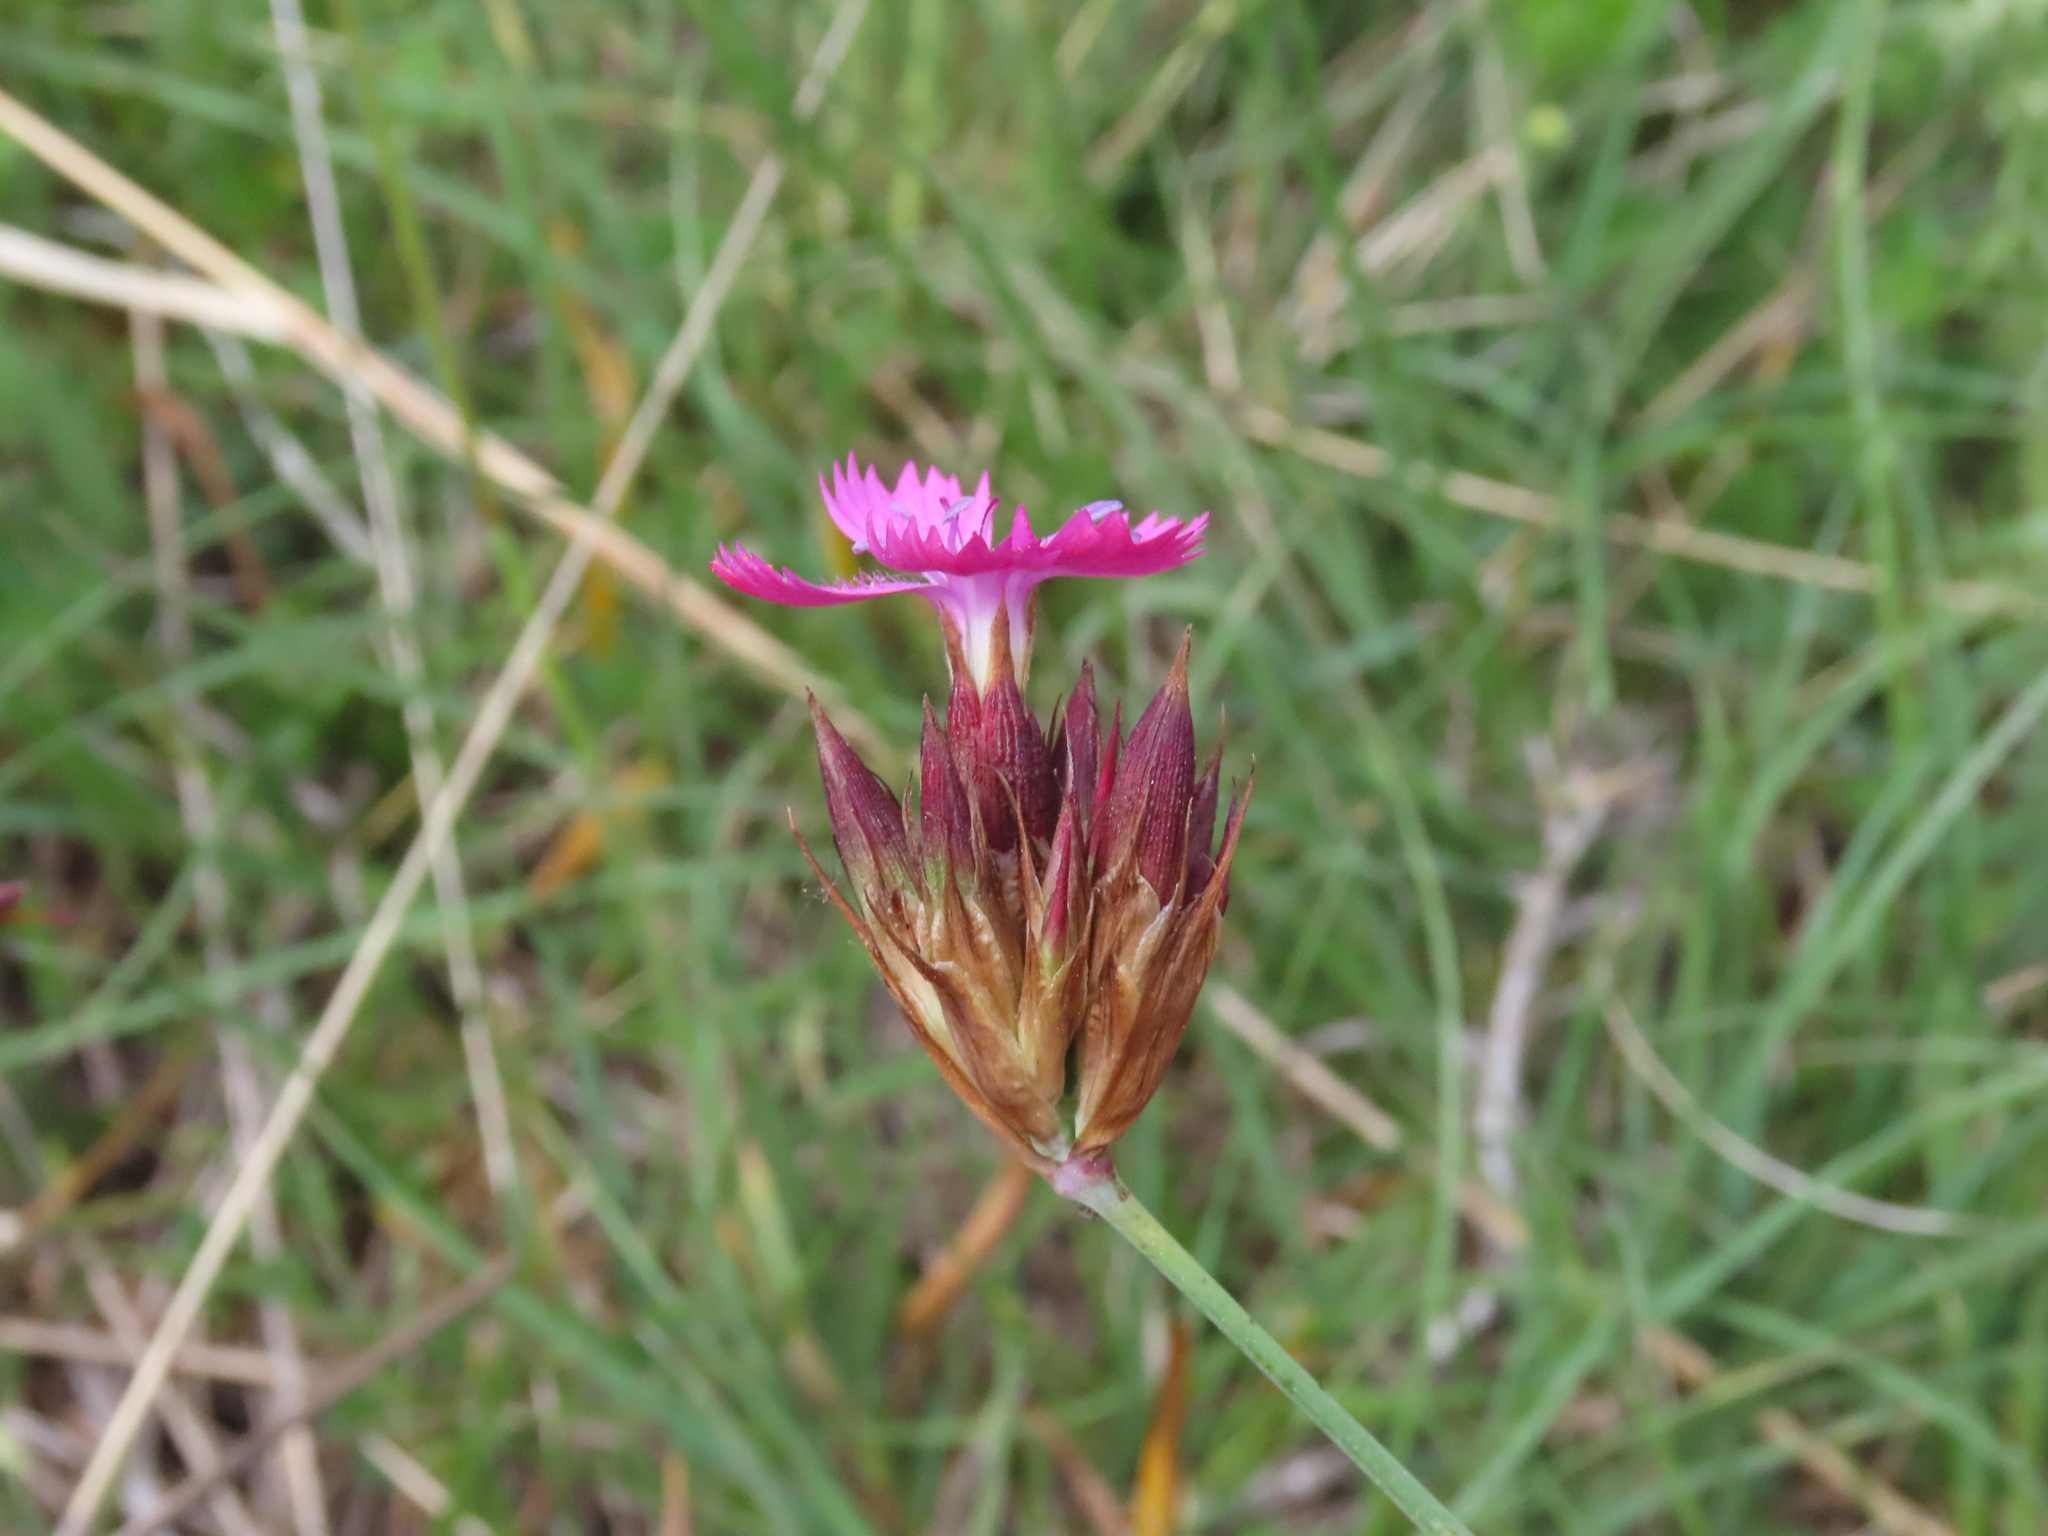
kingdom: Plantae
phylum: Tracheophyta
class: Magnoliopsida
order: Caryophyllales
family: Caryophyllaceae
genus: Dianthus
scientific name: Dianthus carthusianorum
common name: Carthusian pink
